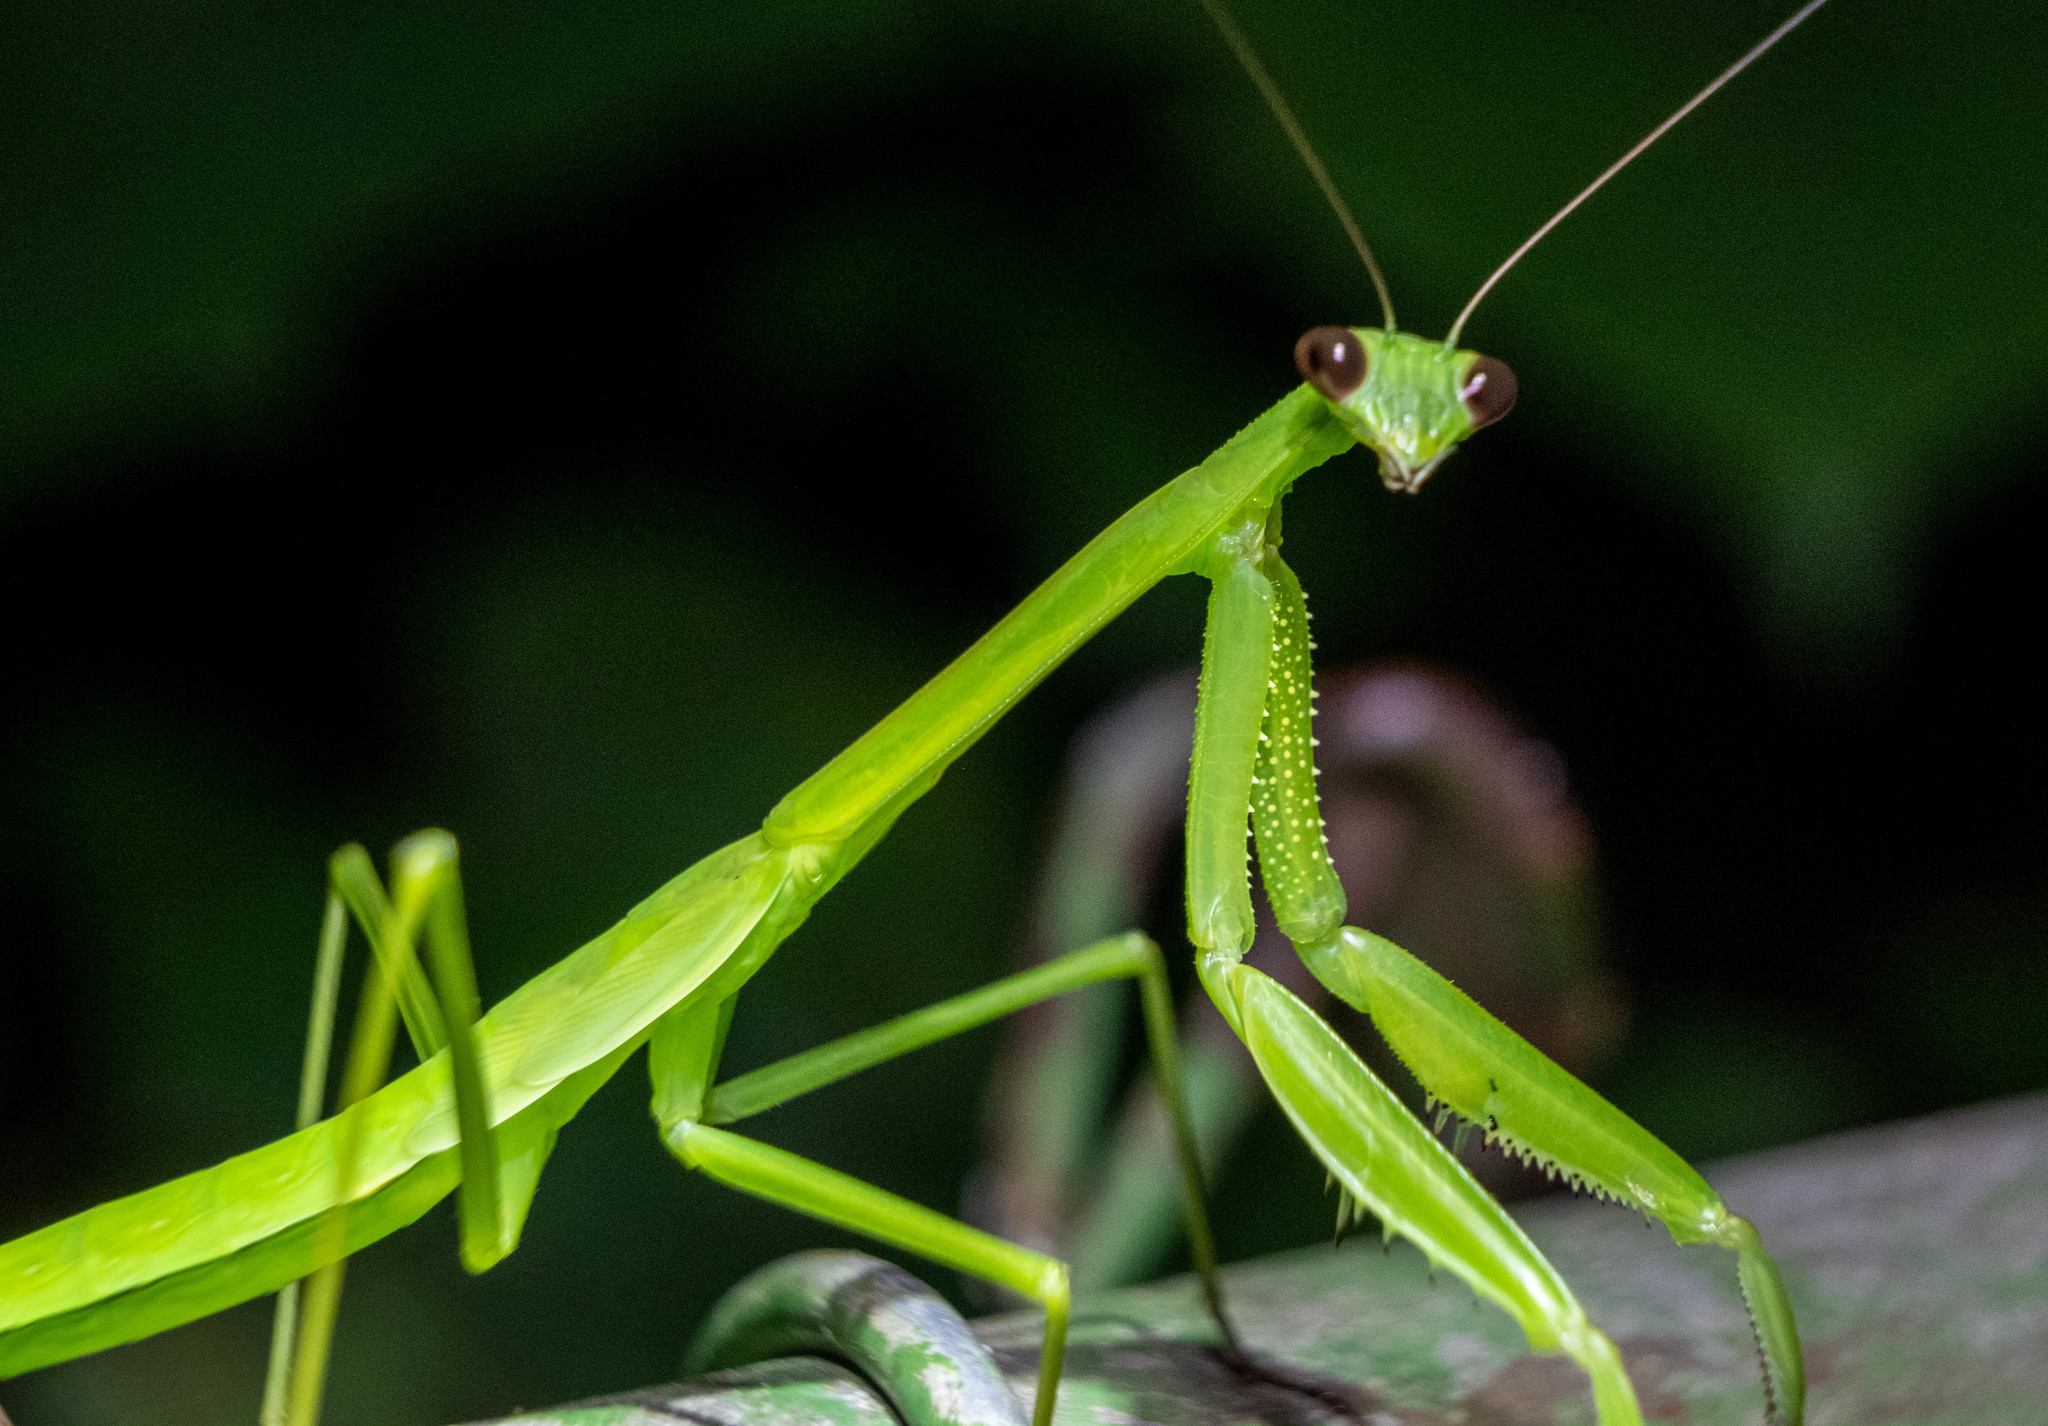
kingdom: Animalia
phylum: Arthropoda
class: Insecta
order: Mantodea
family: Mantidae
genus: Tenodera
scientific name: Tenodera angustipennis
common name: Asian mantis
